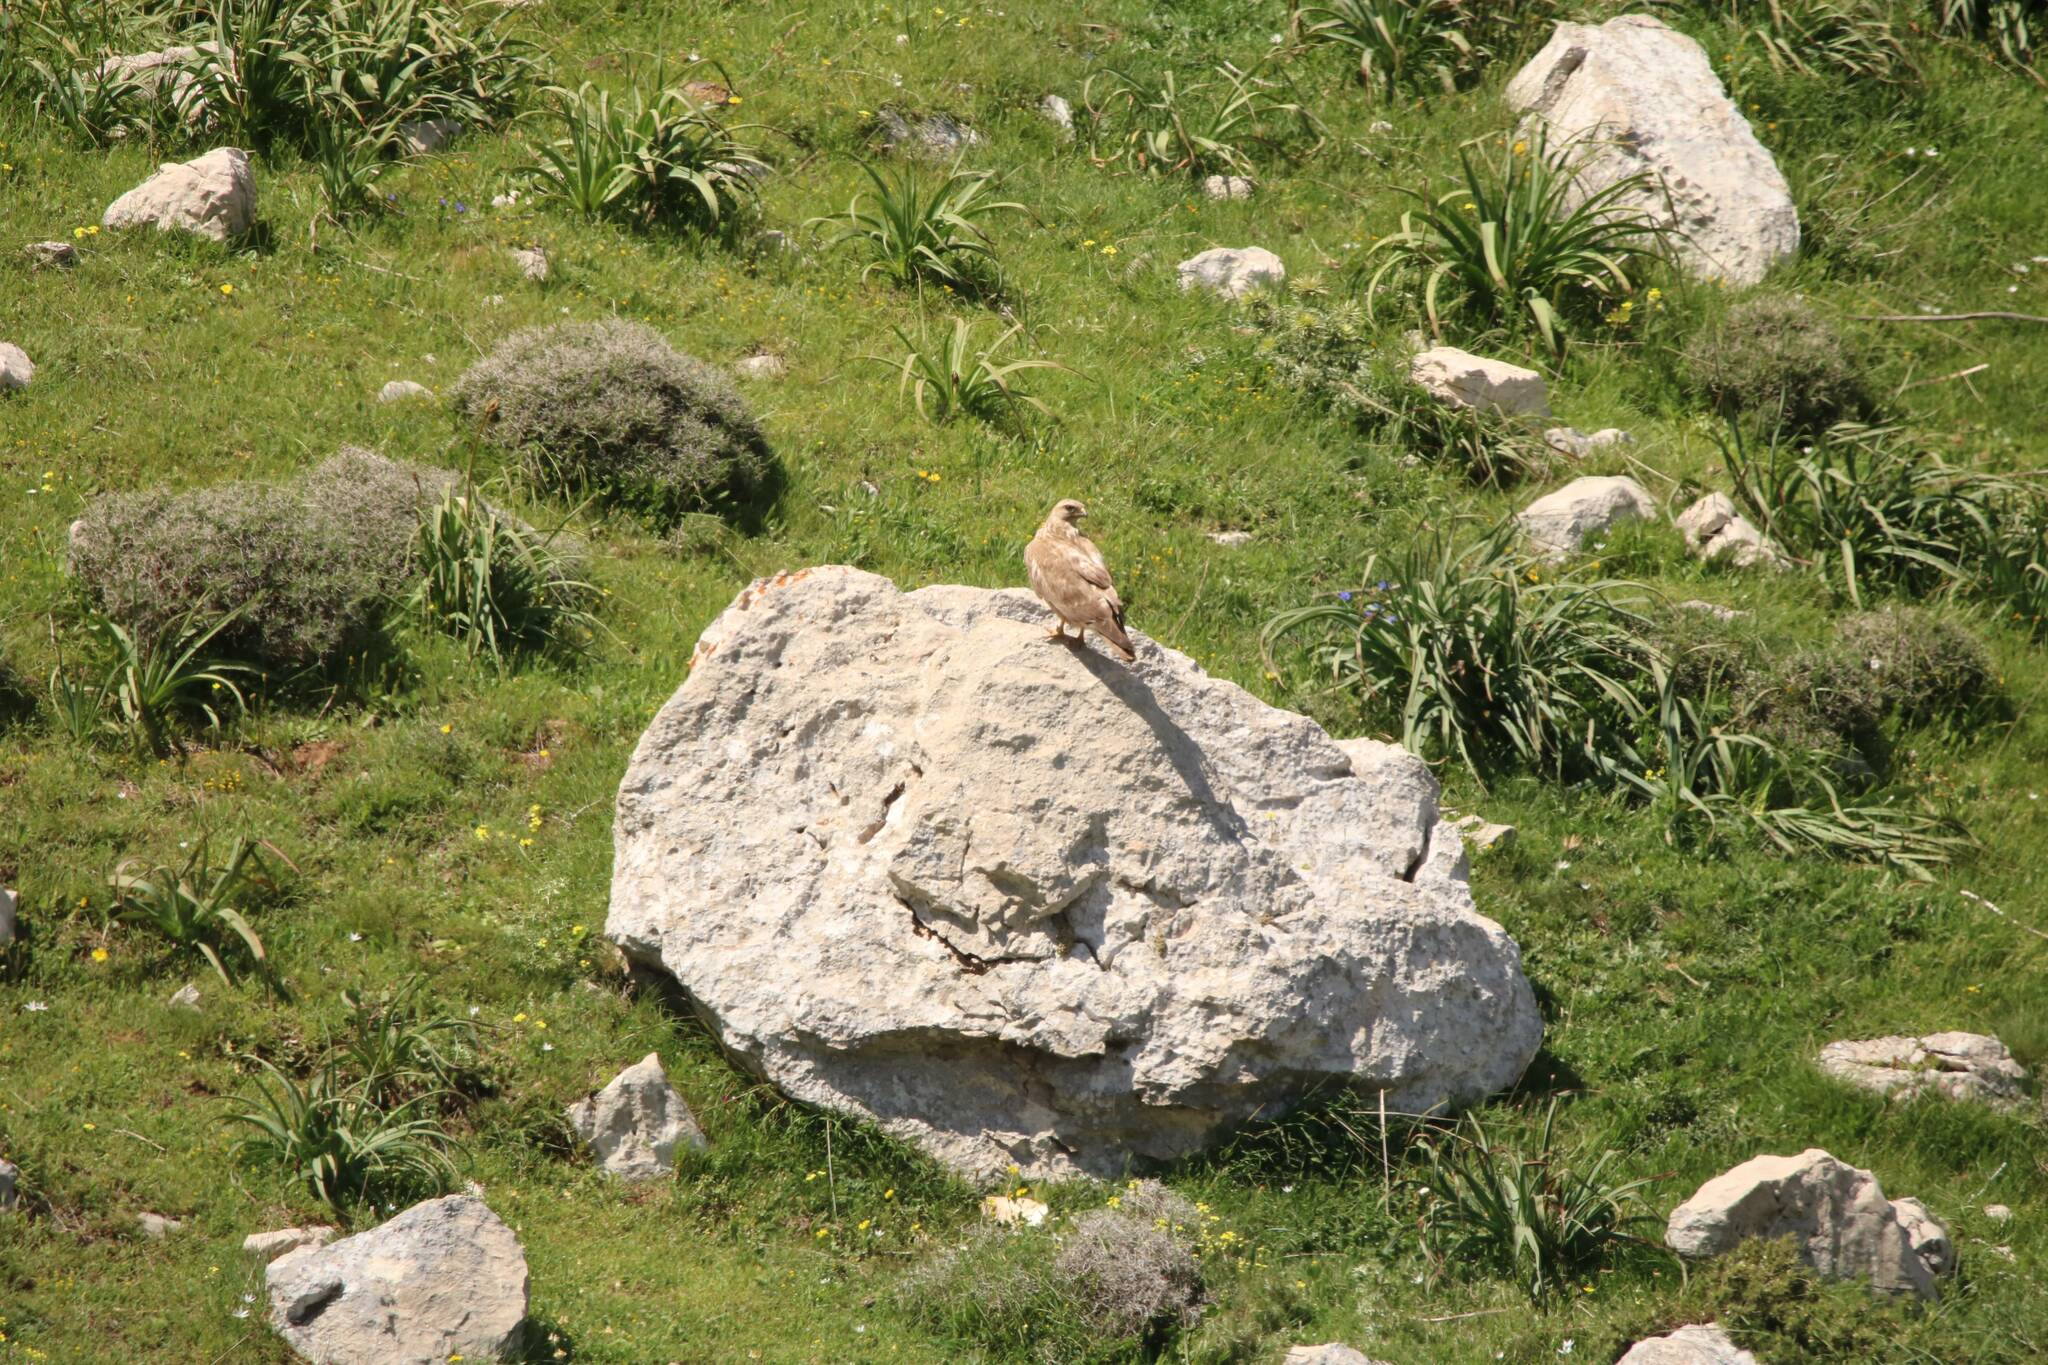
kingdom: Animalia
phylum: Chordata
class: Aves
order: Accipitriformes
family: Accipitridae
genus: Buteo
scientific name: Buteo rufinus
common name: Long-legged buzzard
